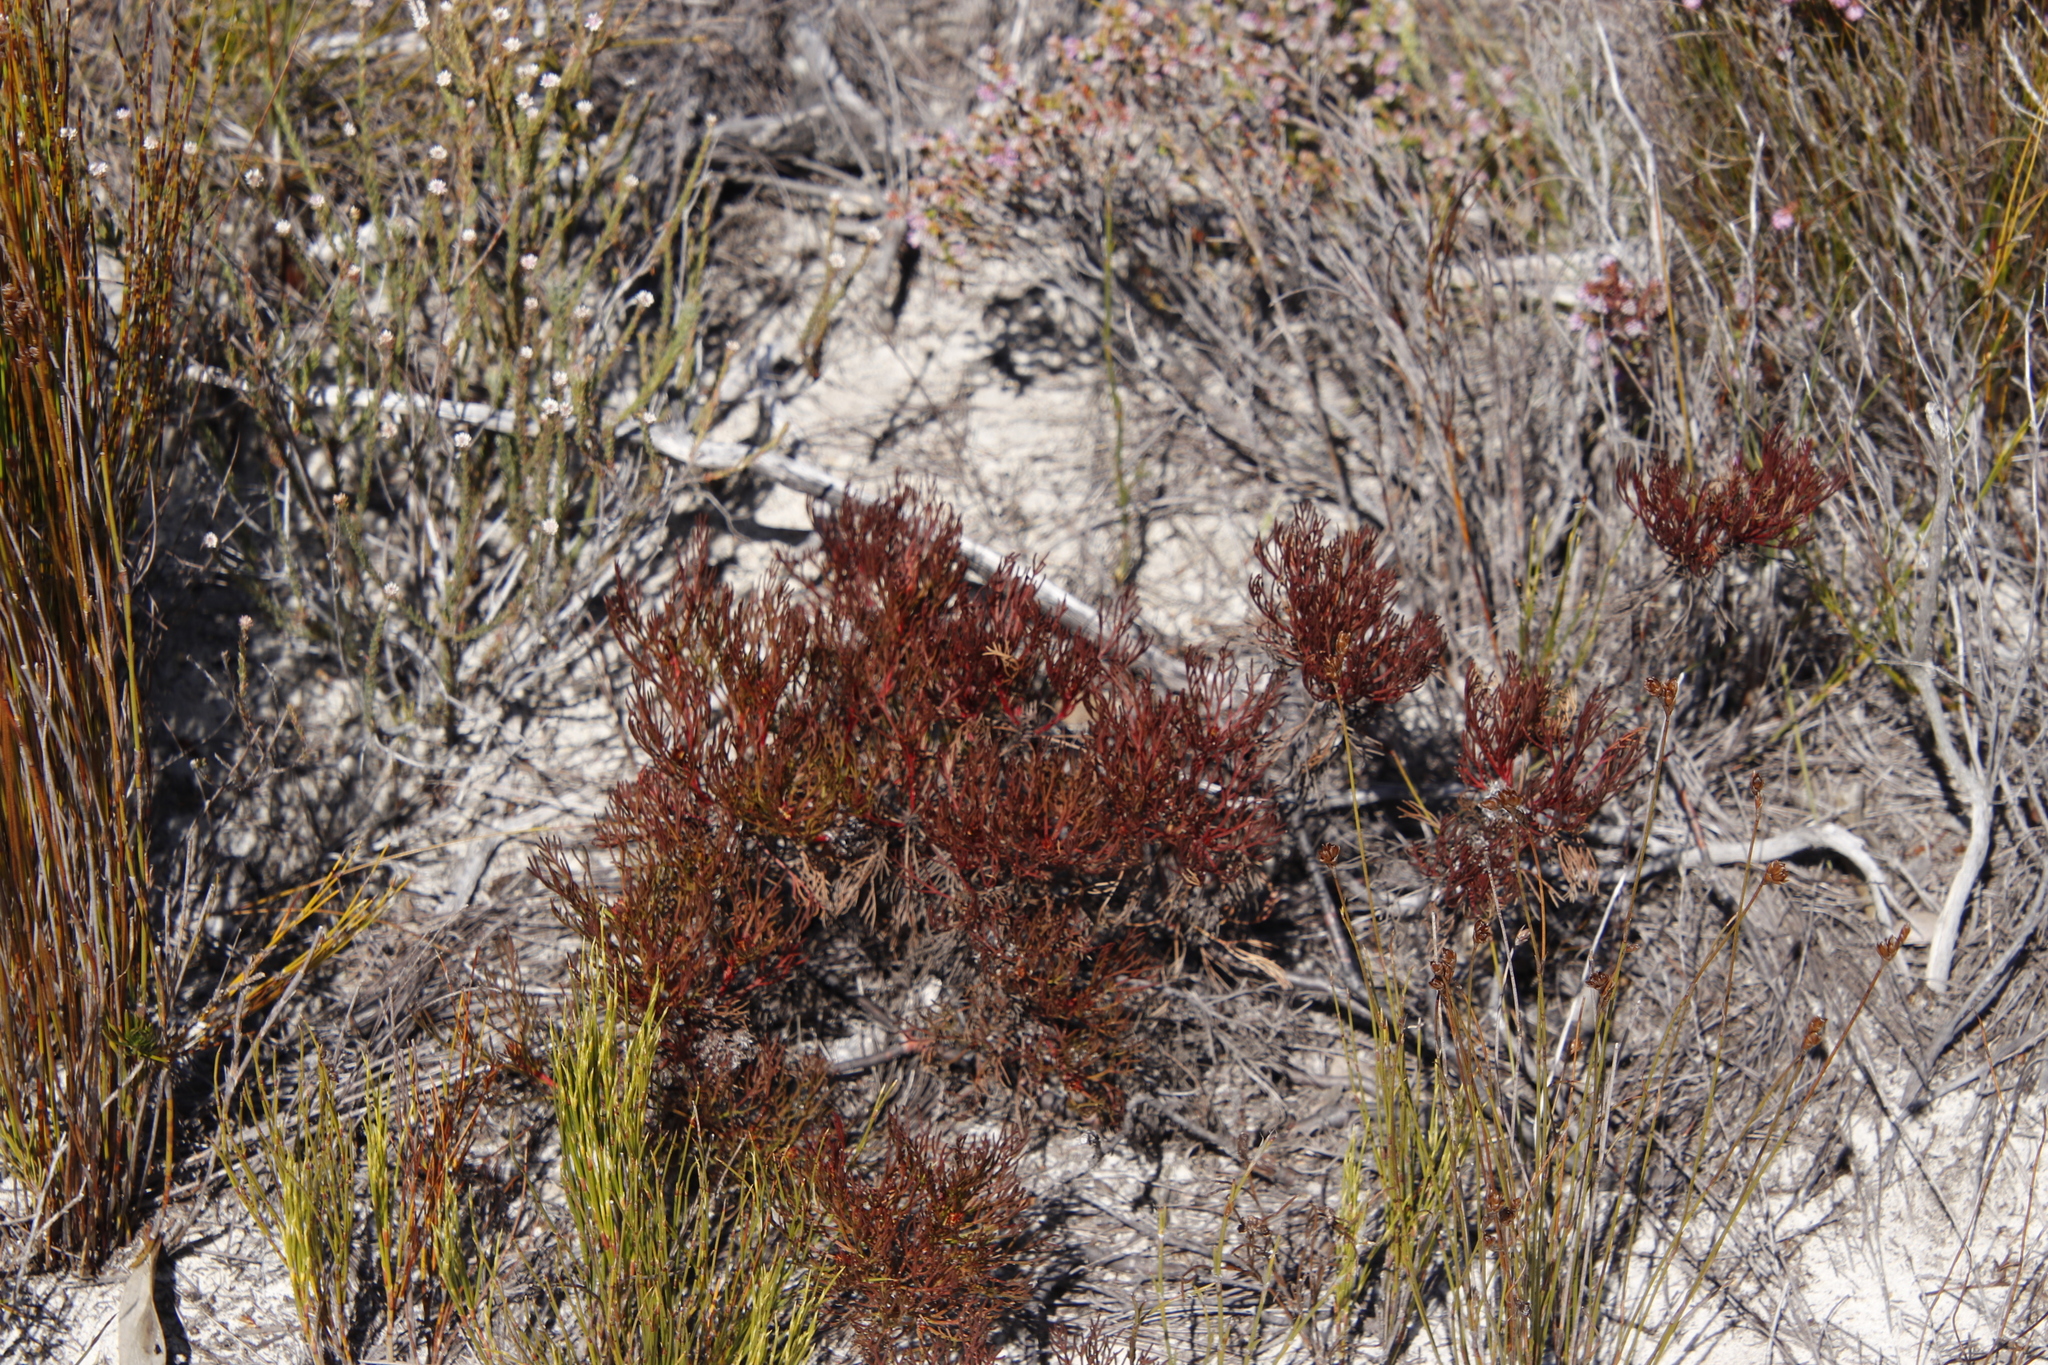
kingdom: Plantae
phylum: Tracheophyta
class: Magnoliopsida
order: Proteales
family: Proteaceae
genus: Serruria
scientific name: Serruria bolusii
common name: Agulhas spiderhead
